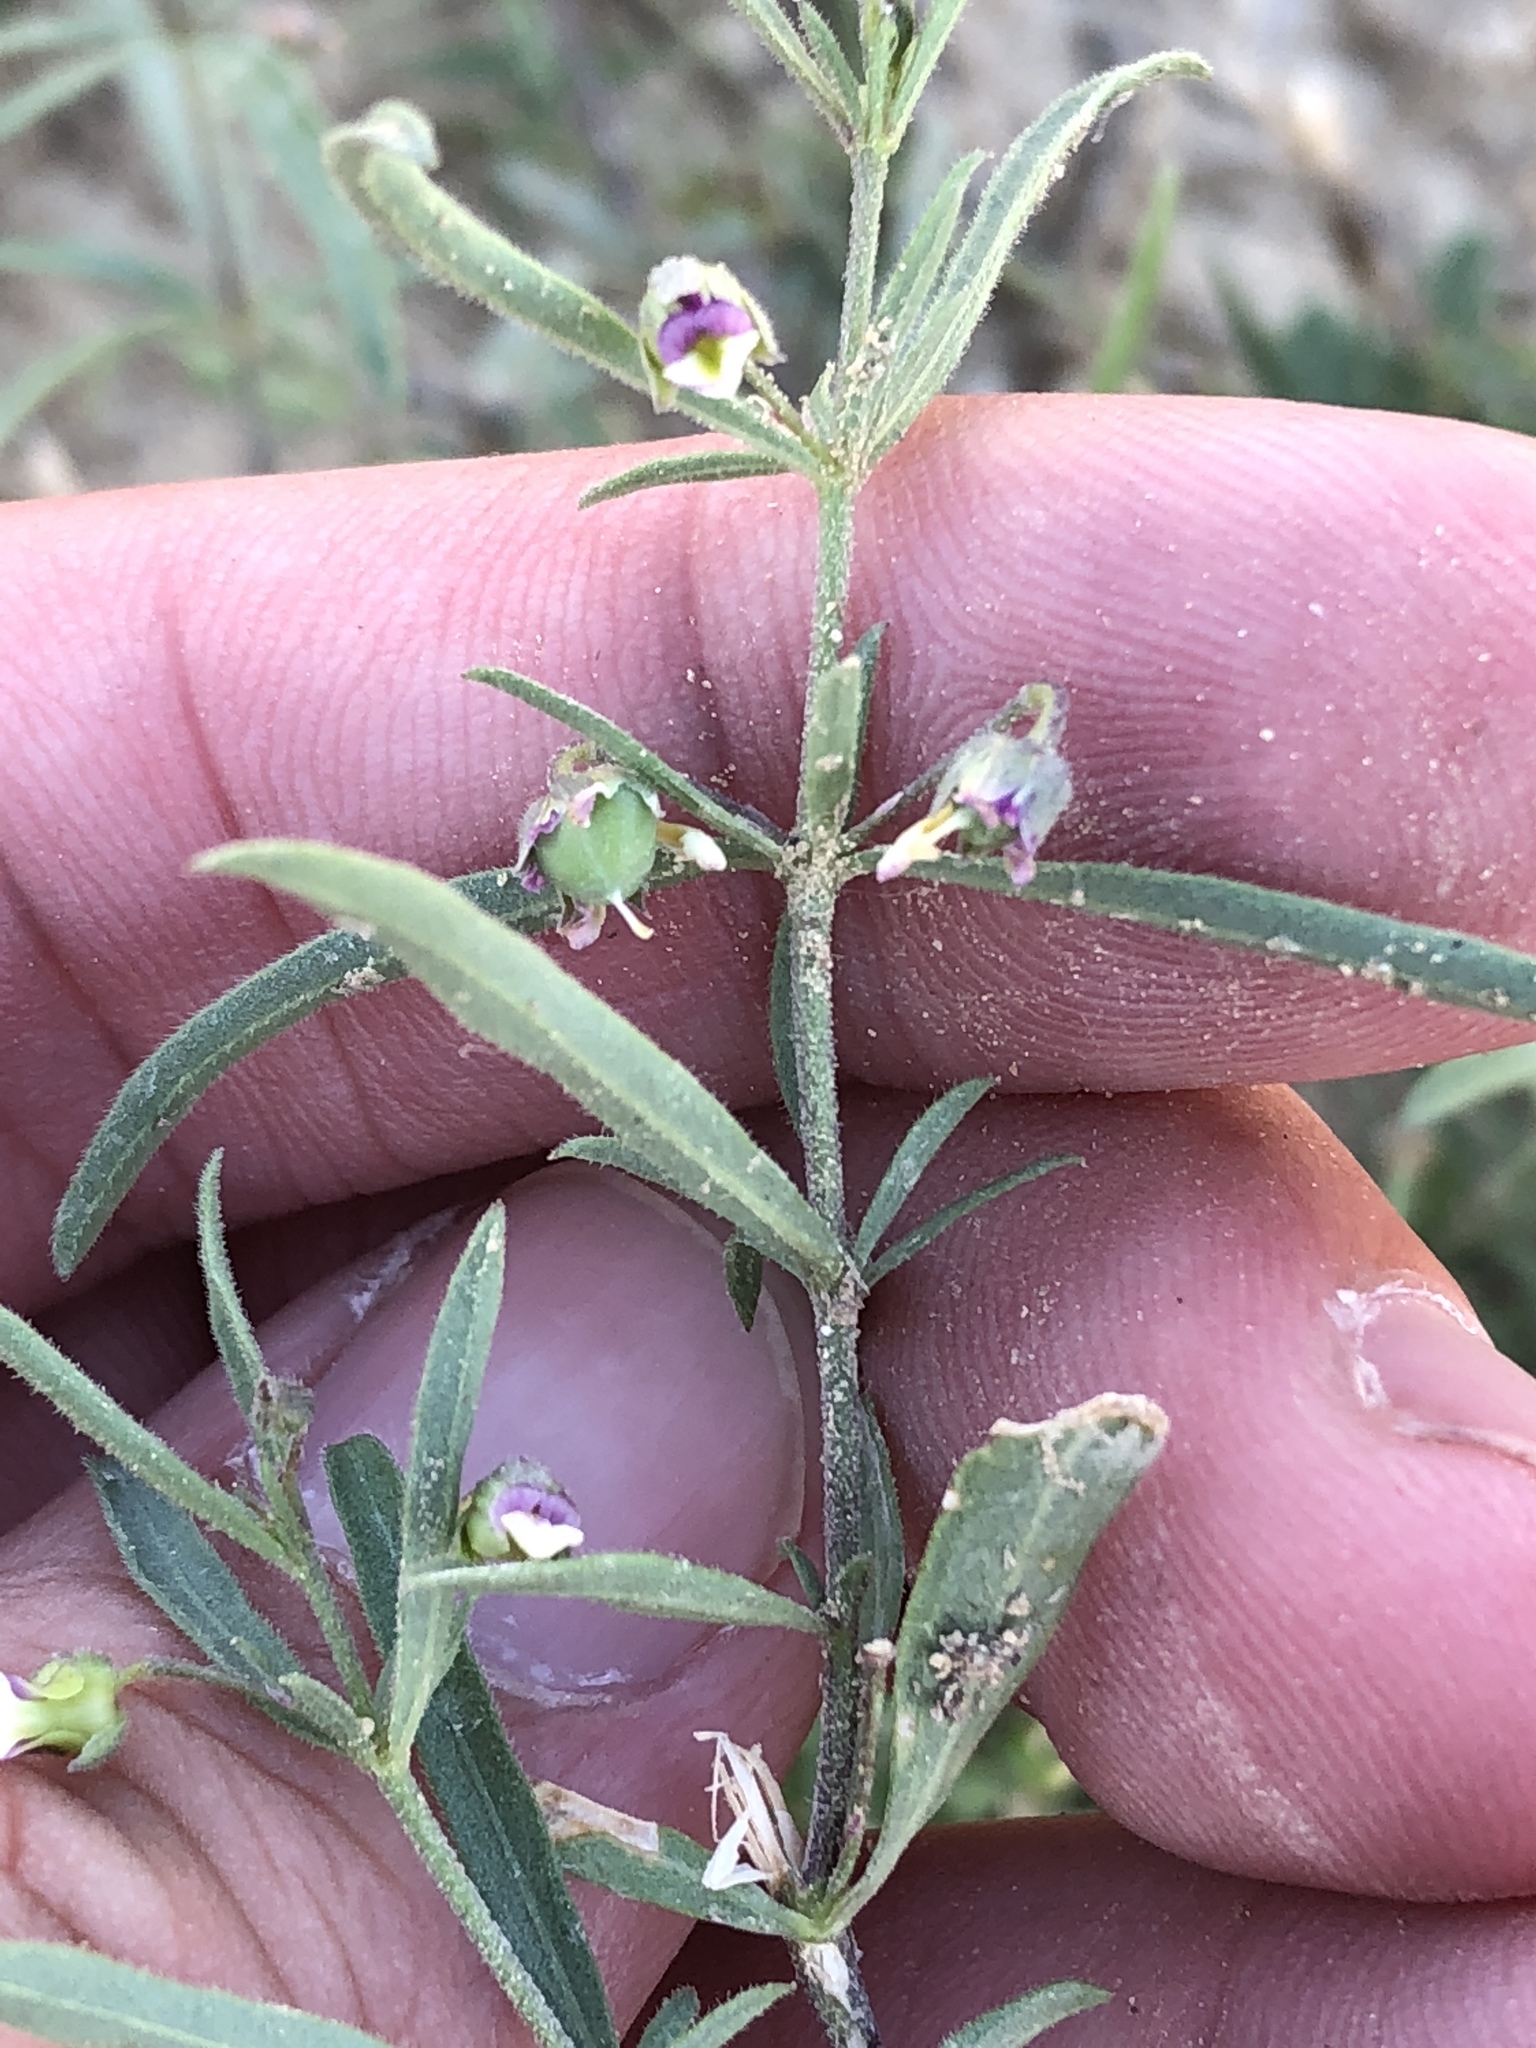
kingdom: Plantae
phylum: Tracheophyta
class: Magnoliopsida
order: Malpighiales
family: Violaceae
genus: Pombalia
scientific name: Pombalia verticillata
